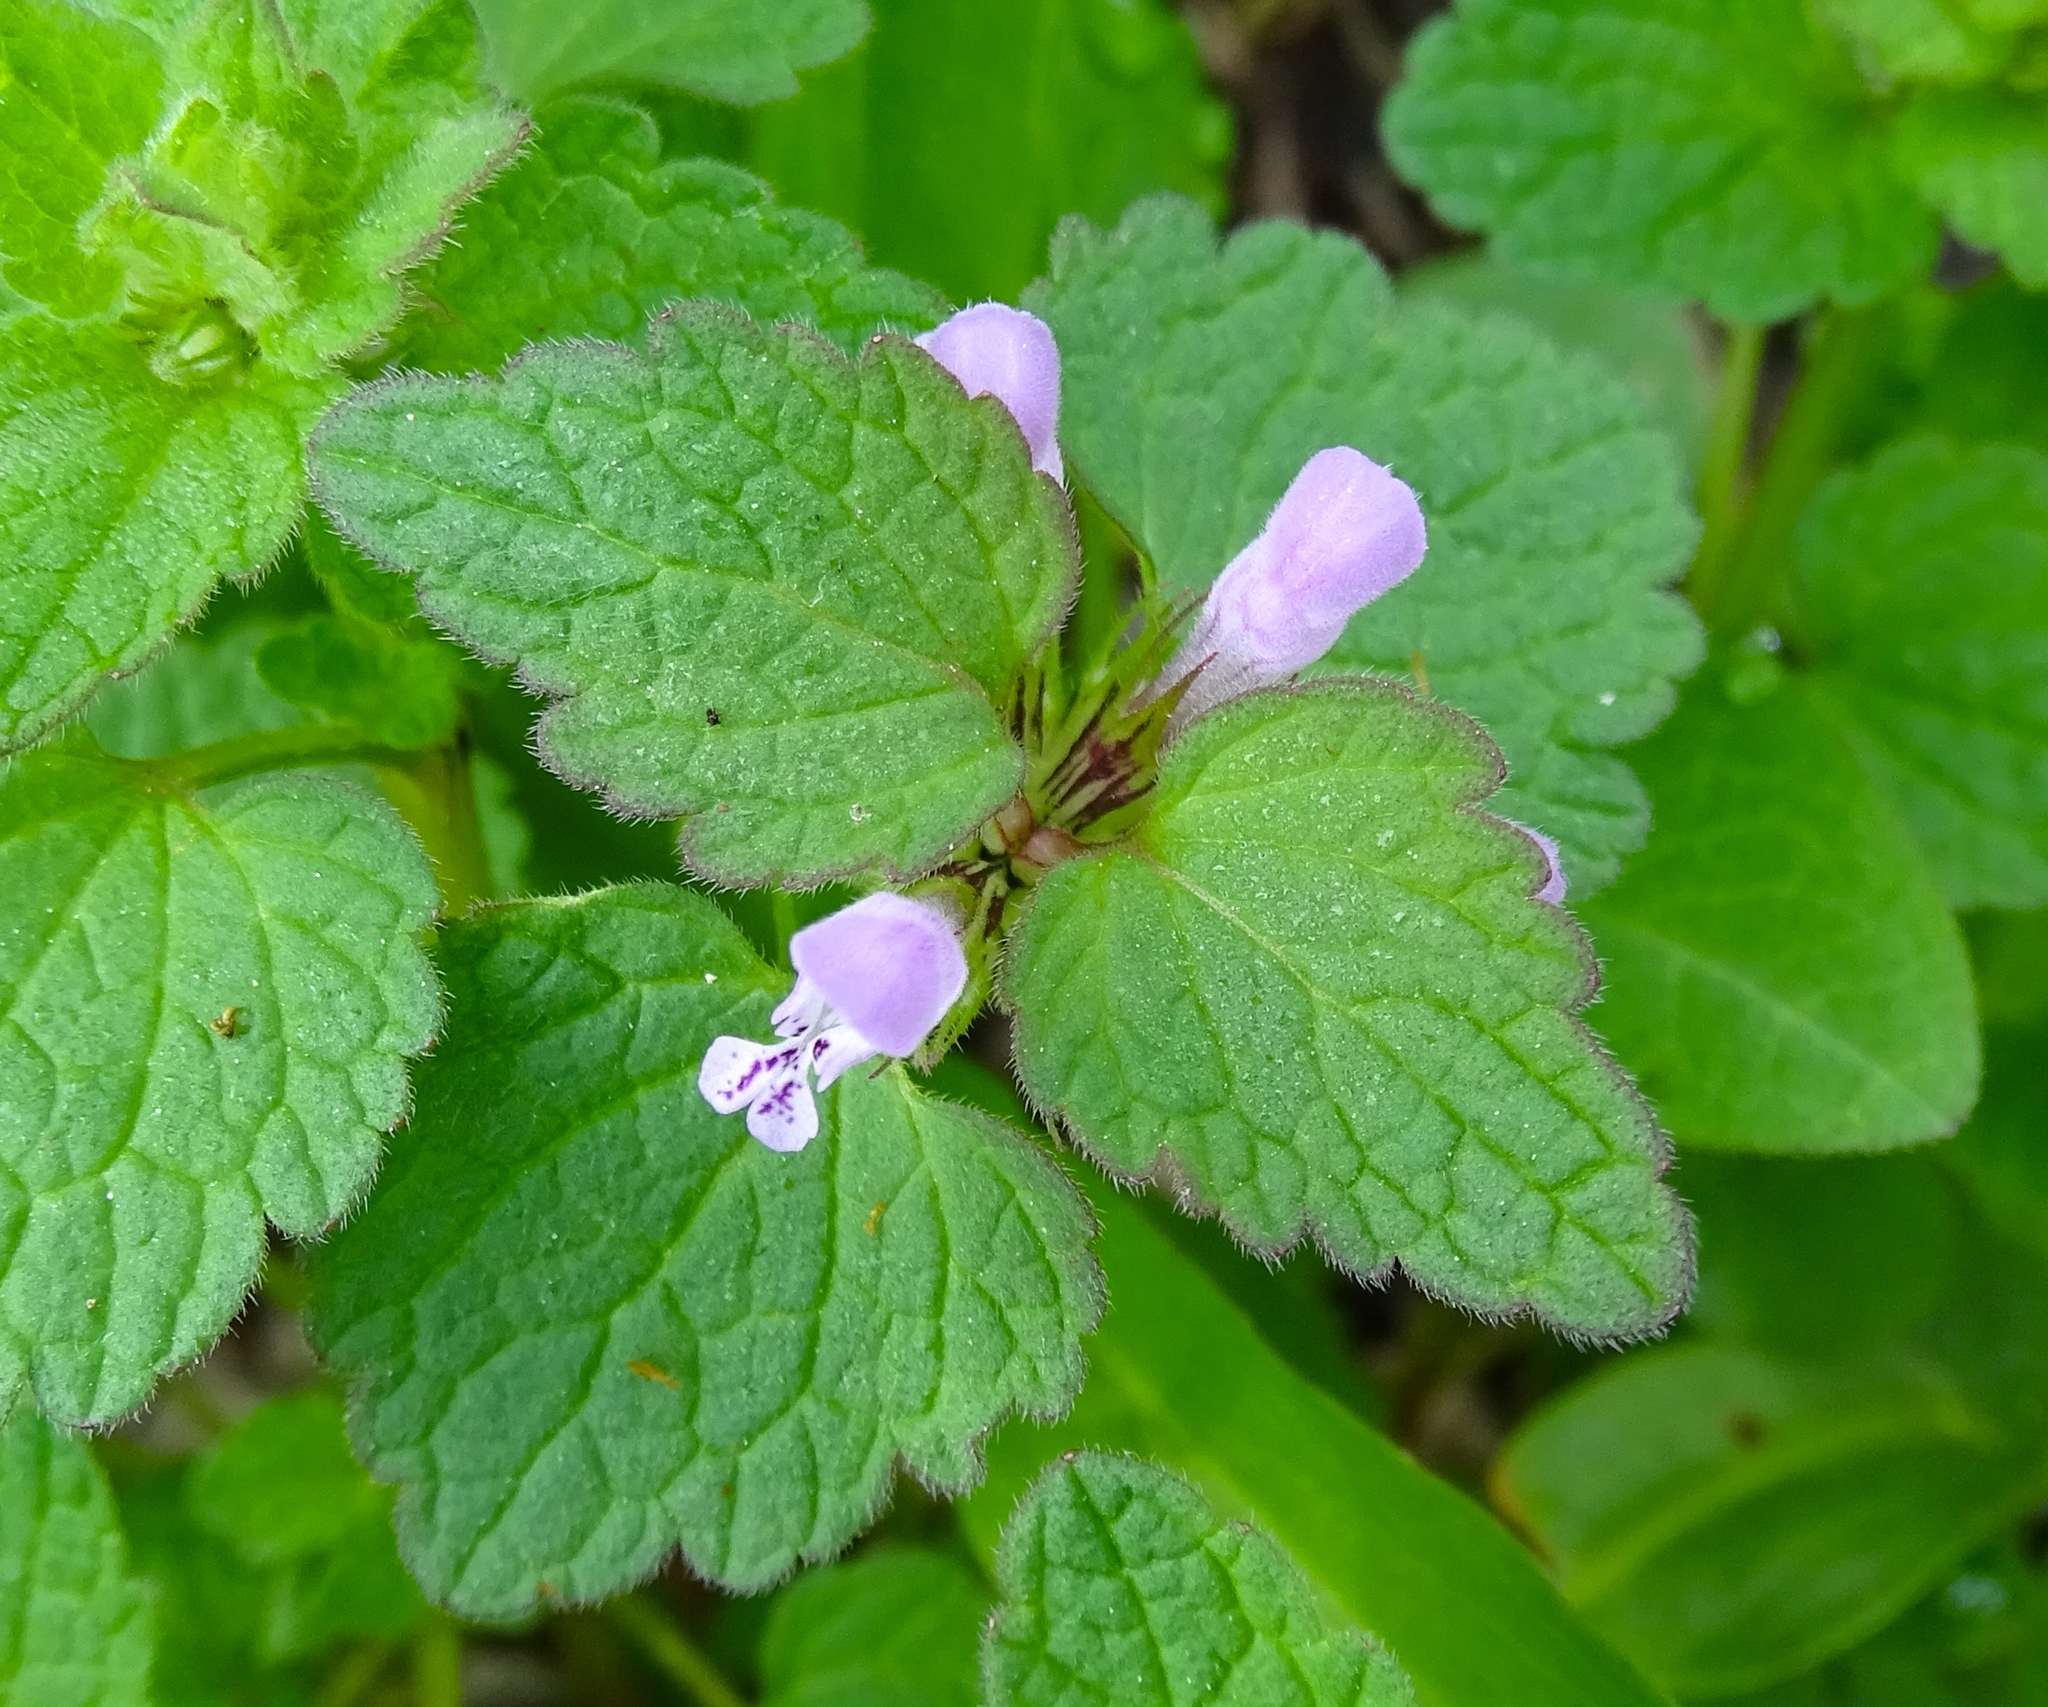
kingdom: Plantae
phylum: Tracheophyta
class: Magnoliopsida
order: Lamiales
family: Lamiaceae
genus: Lamium
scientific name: Lamium purpureum
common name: Red dead-nettle
